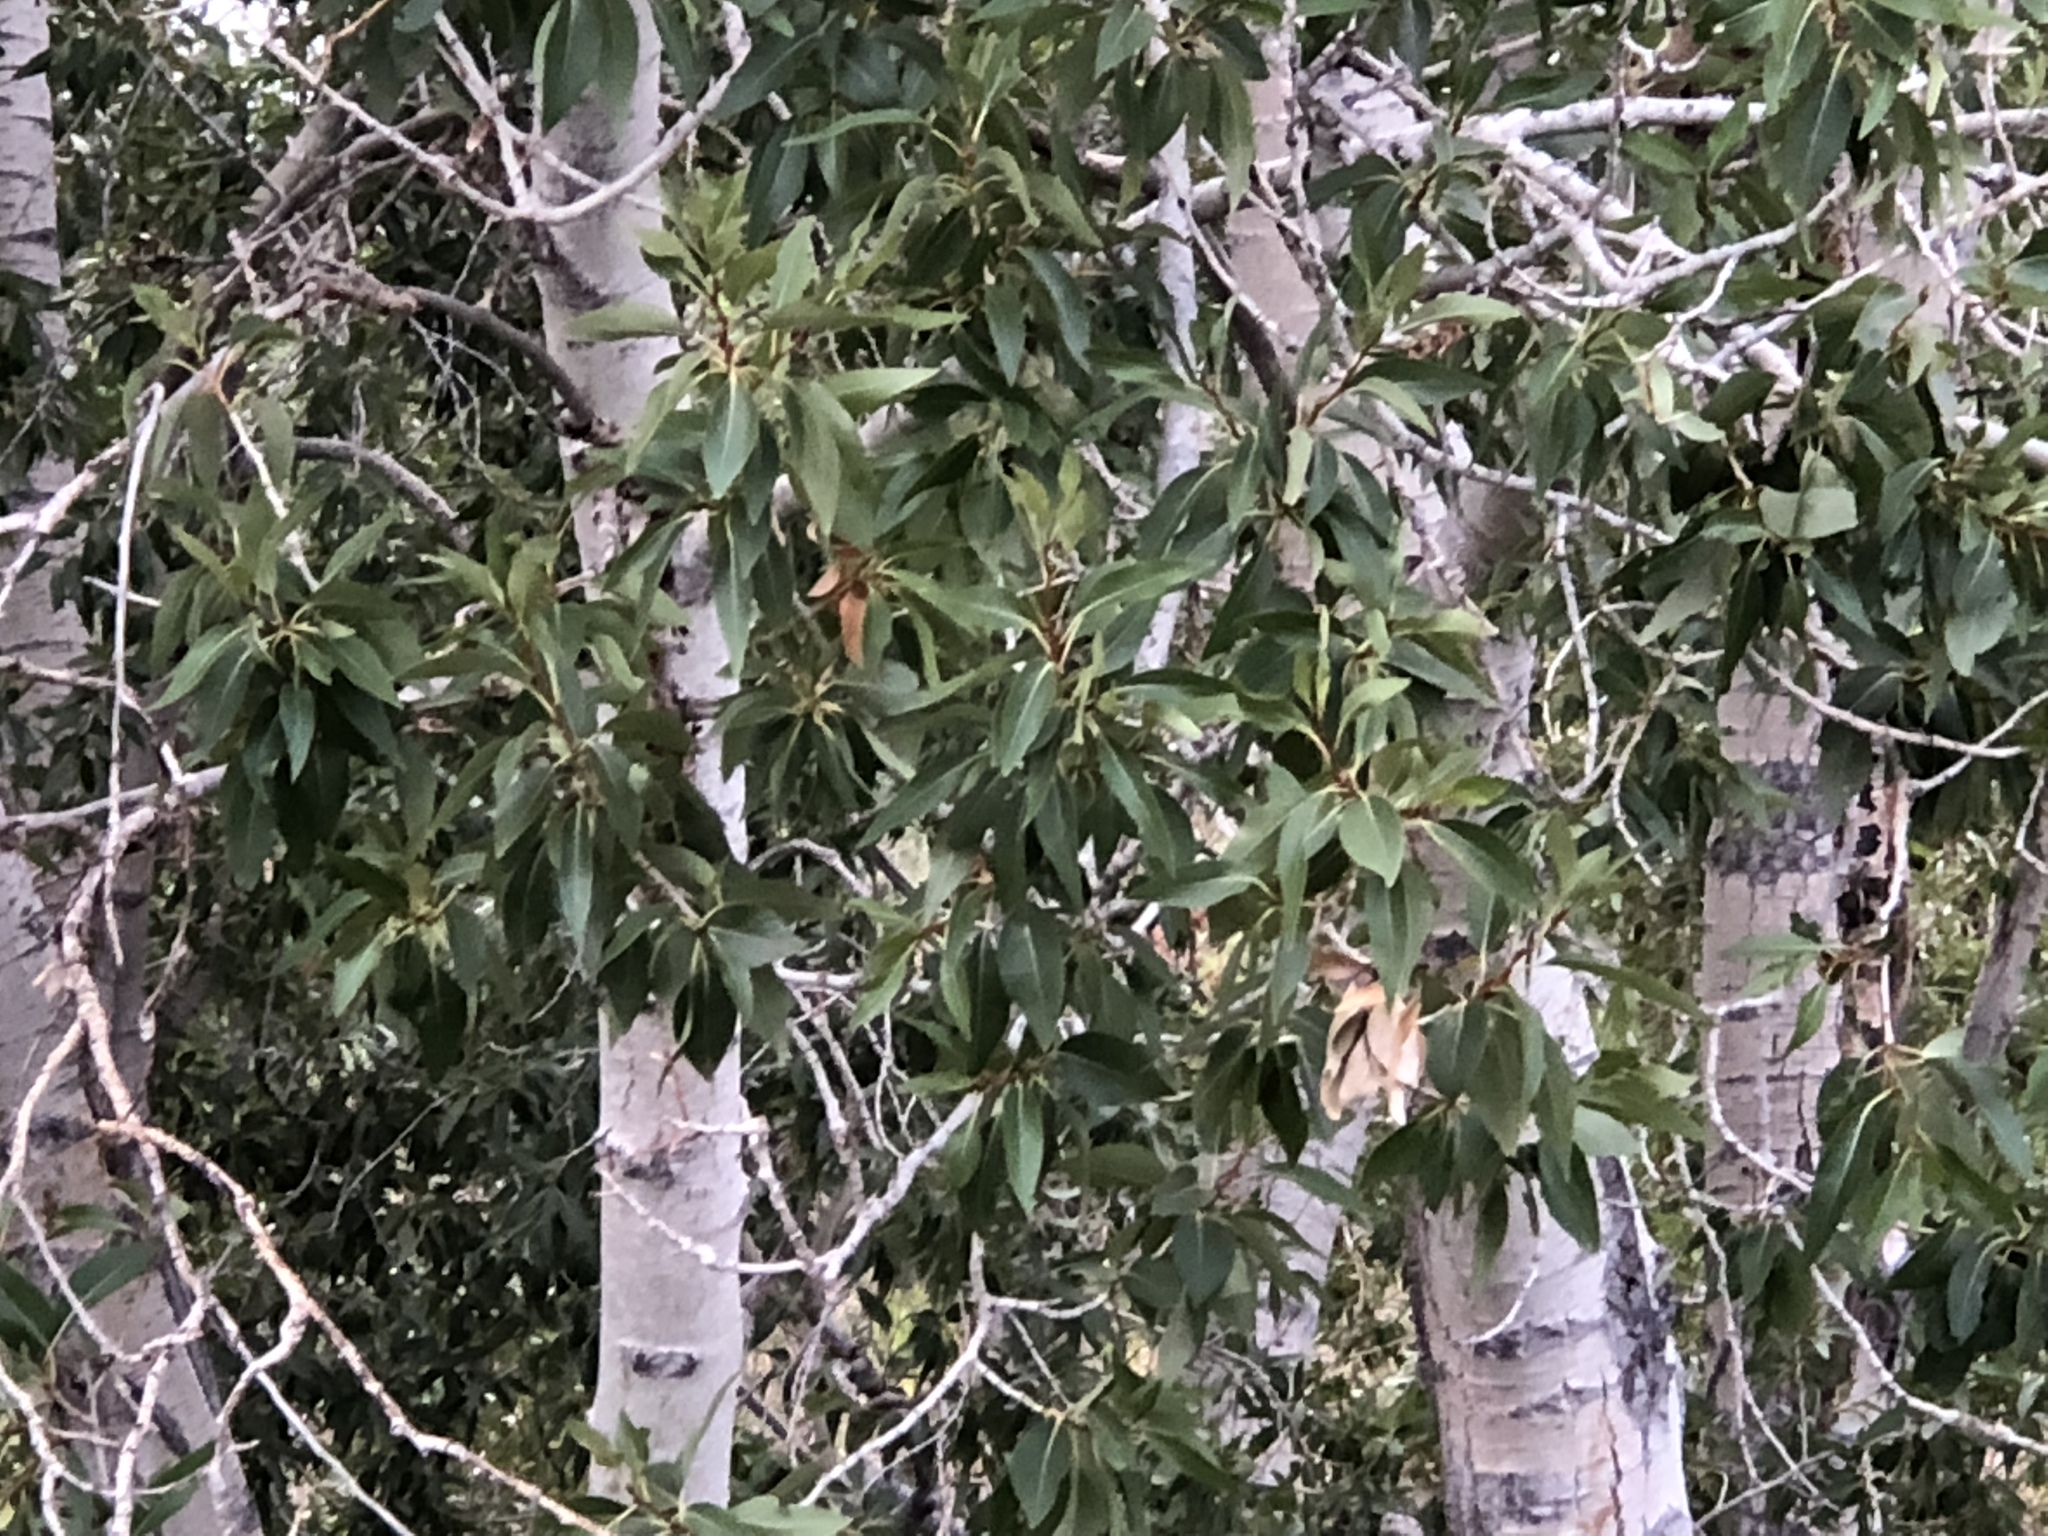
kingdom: Plantae
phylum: Tracheophyta
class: Magnoliopsida
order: Malpighiales
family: Salicaceae
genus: Populus
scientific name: Populus angustifolia
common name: Willow cottonwood
